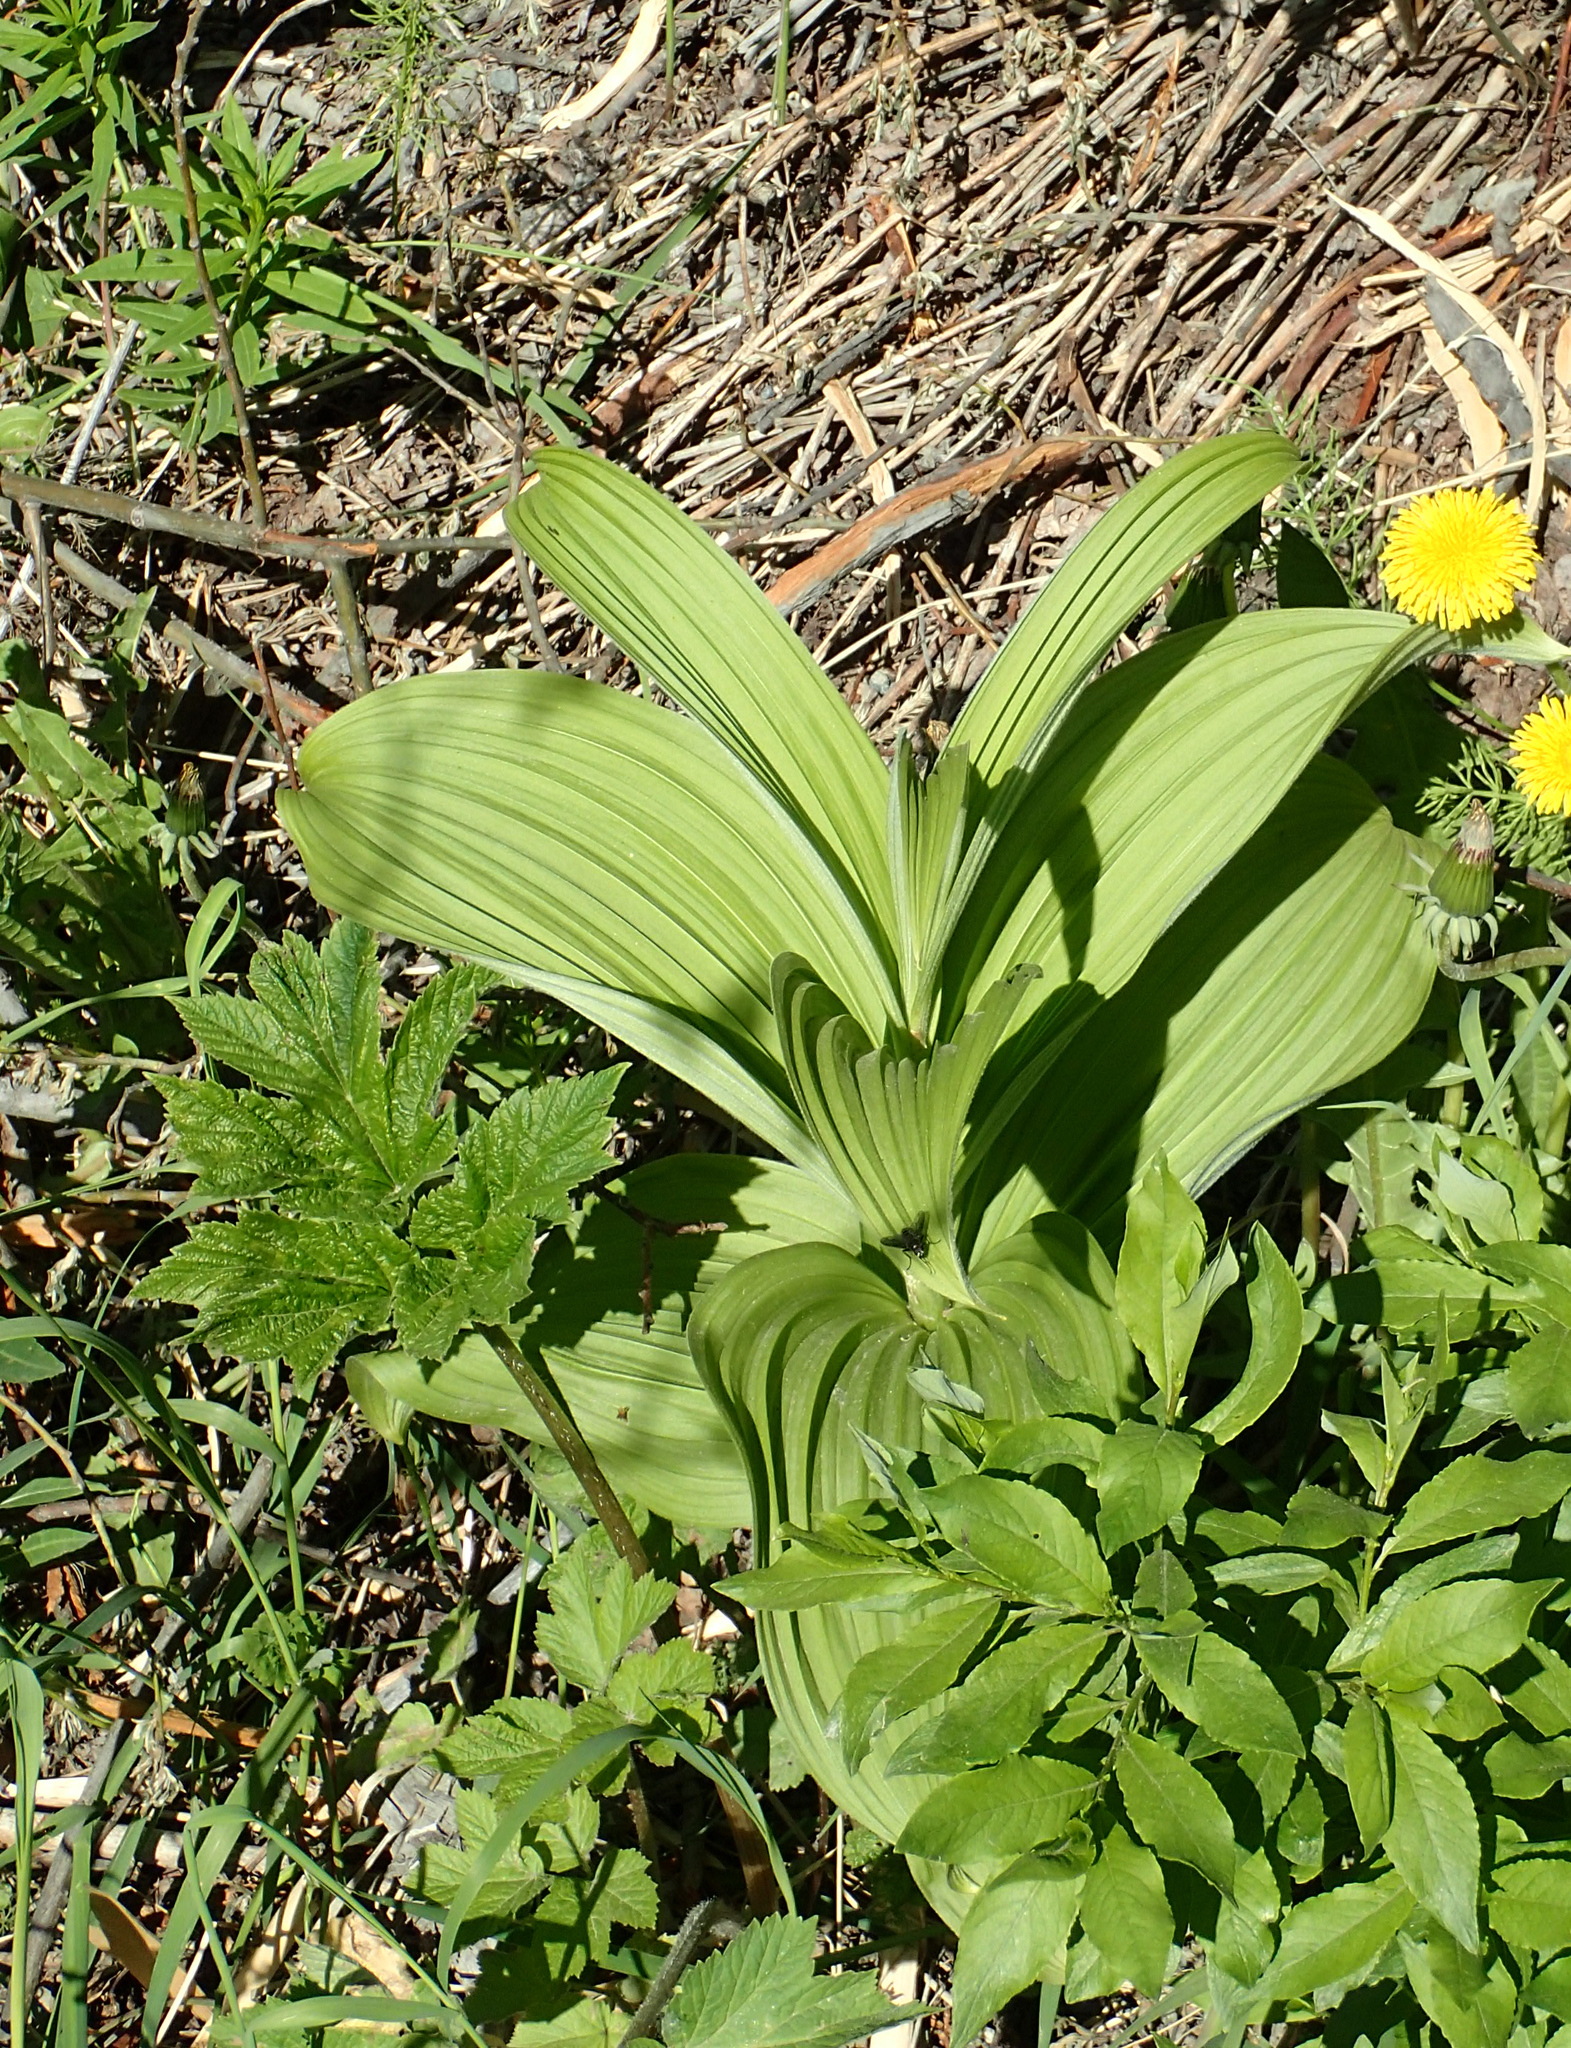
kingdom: Plantae
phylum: Tracheophyta
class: Liliopsida
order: Liliales
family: Melanthiaceae
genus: Veratrum
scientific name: Veratrum viride
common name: American false hellebore
